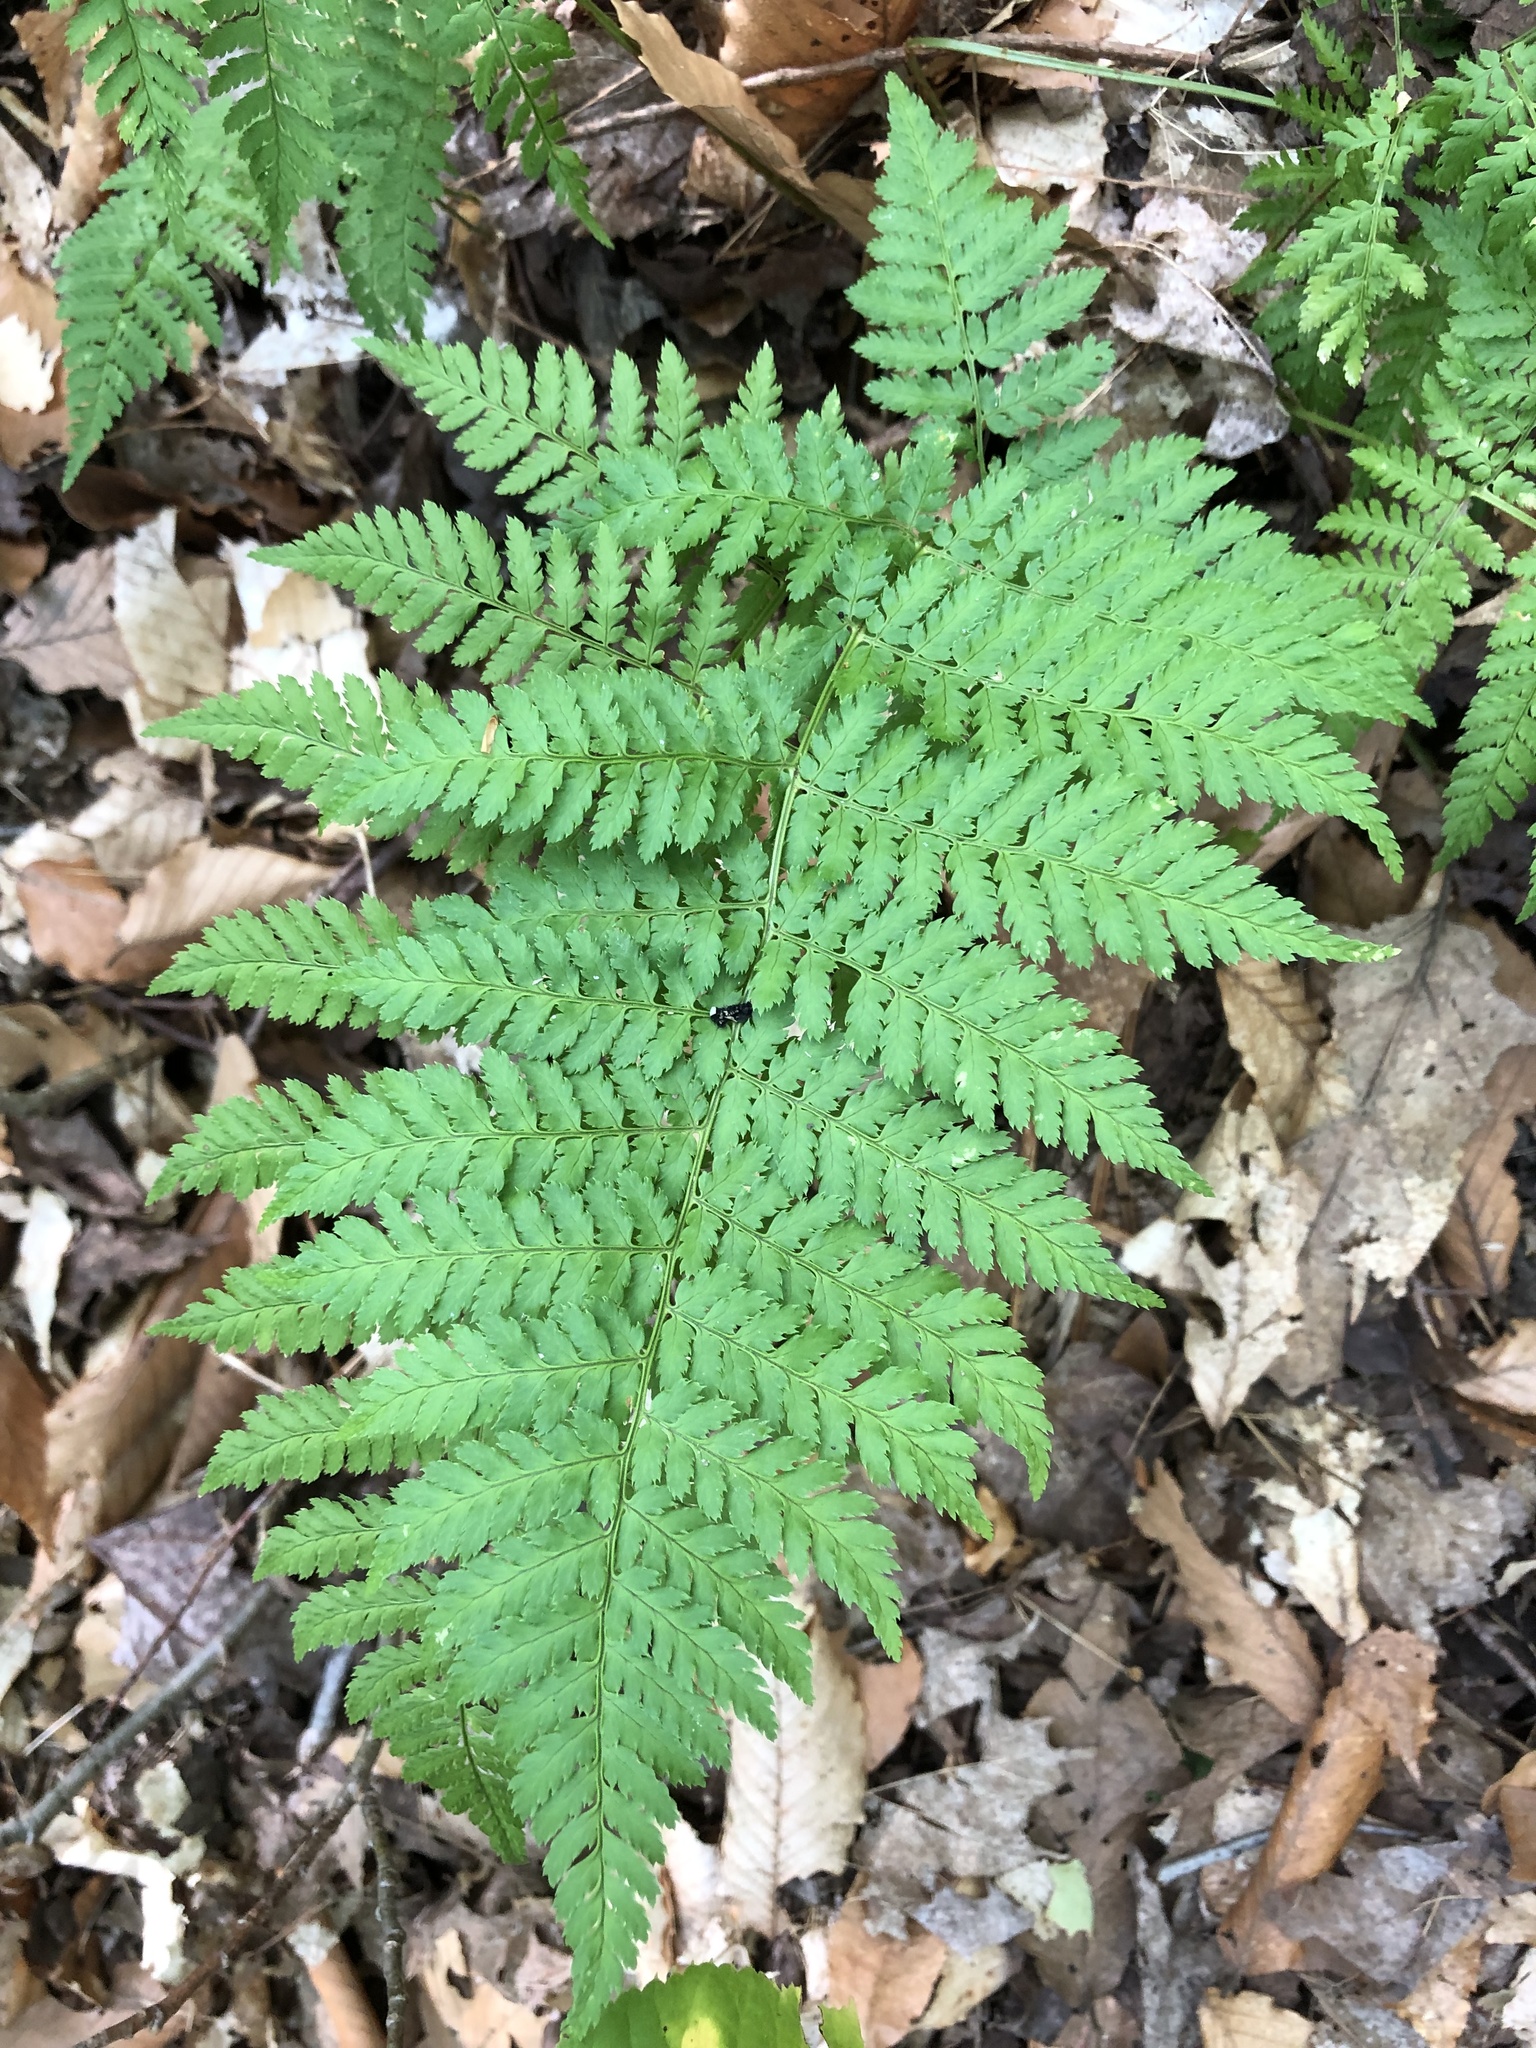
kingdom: Plantae
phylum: Tracheophyta
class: Polypodiopsida
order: Polypodiales
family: Dryopteridaceae
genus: Dryopteris
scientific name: Dryopteris intermedia
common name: Evergreen wood fern
